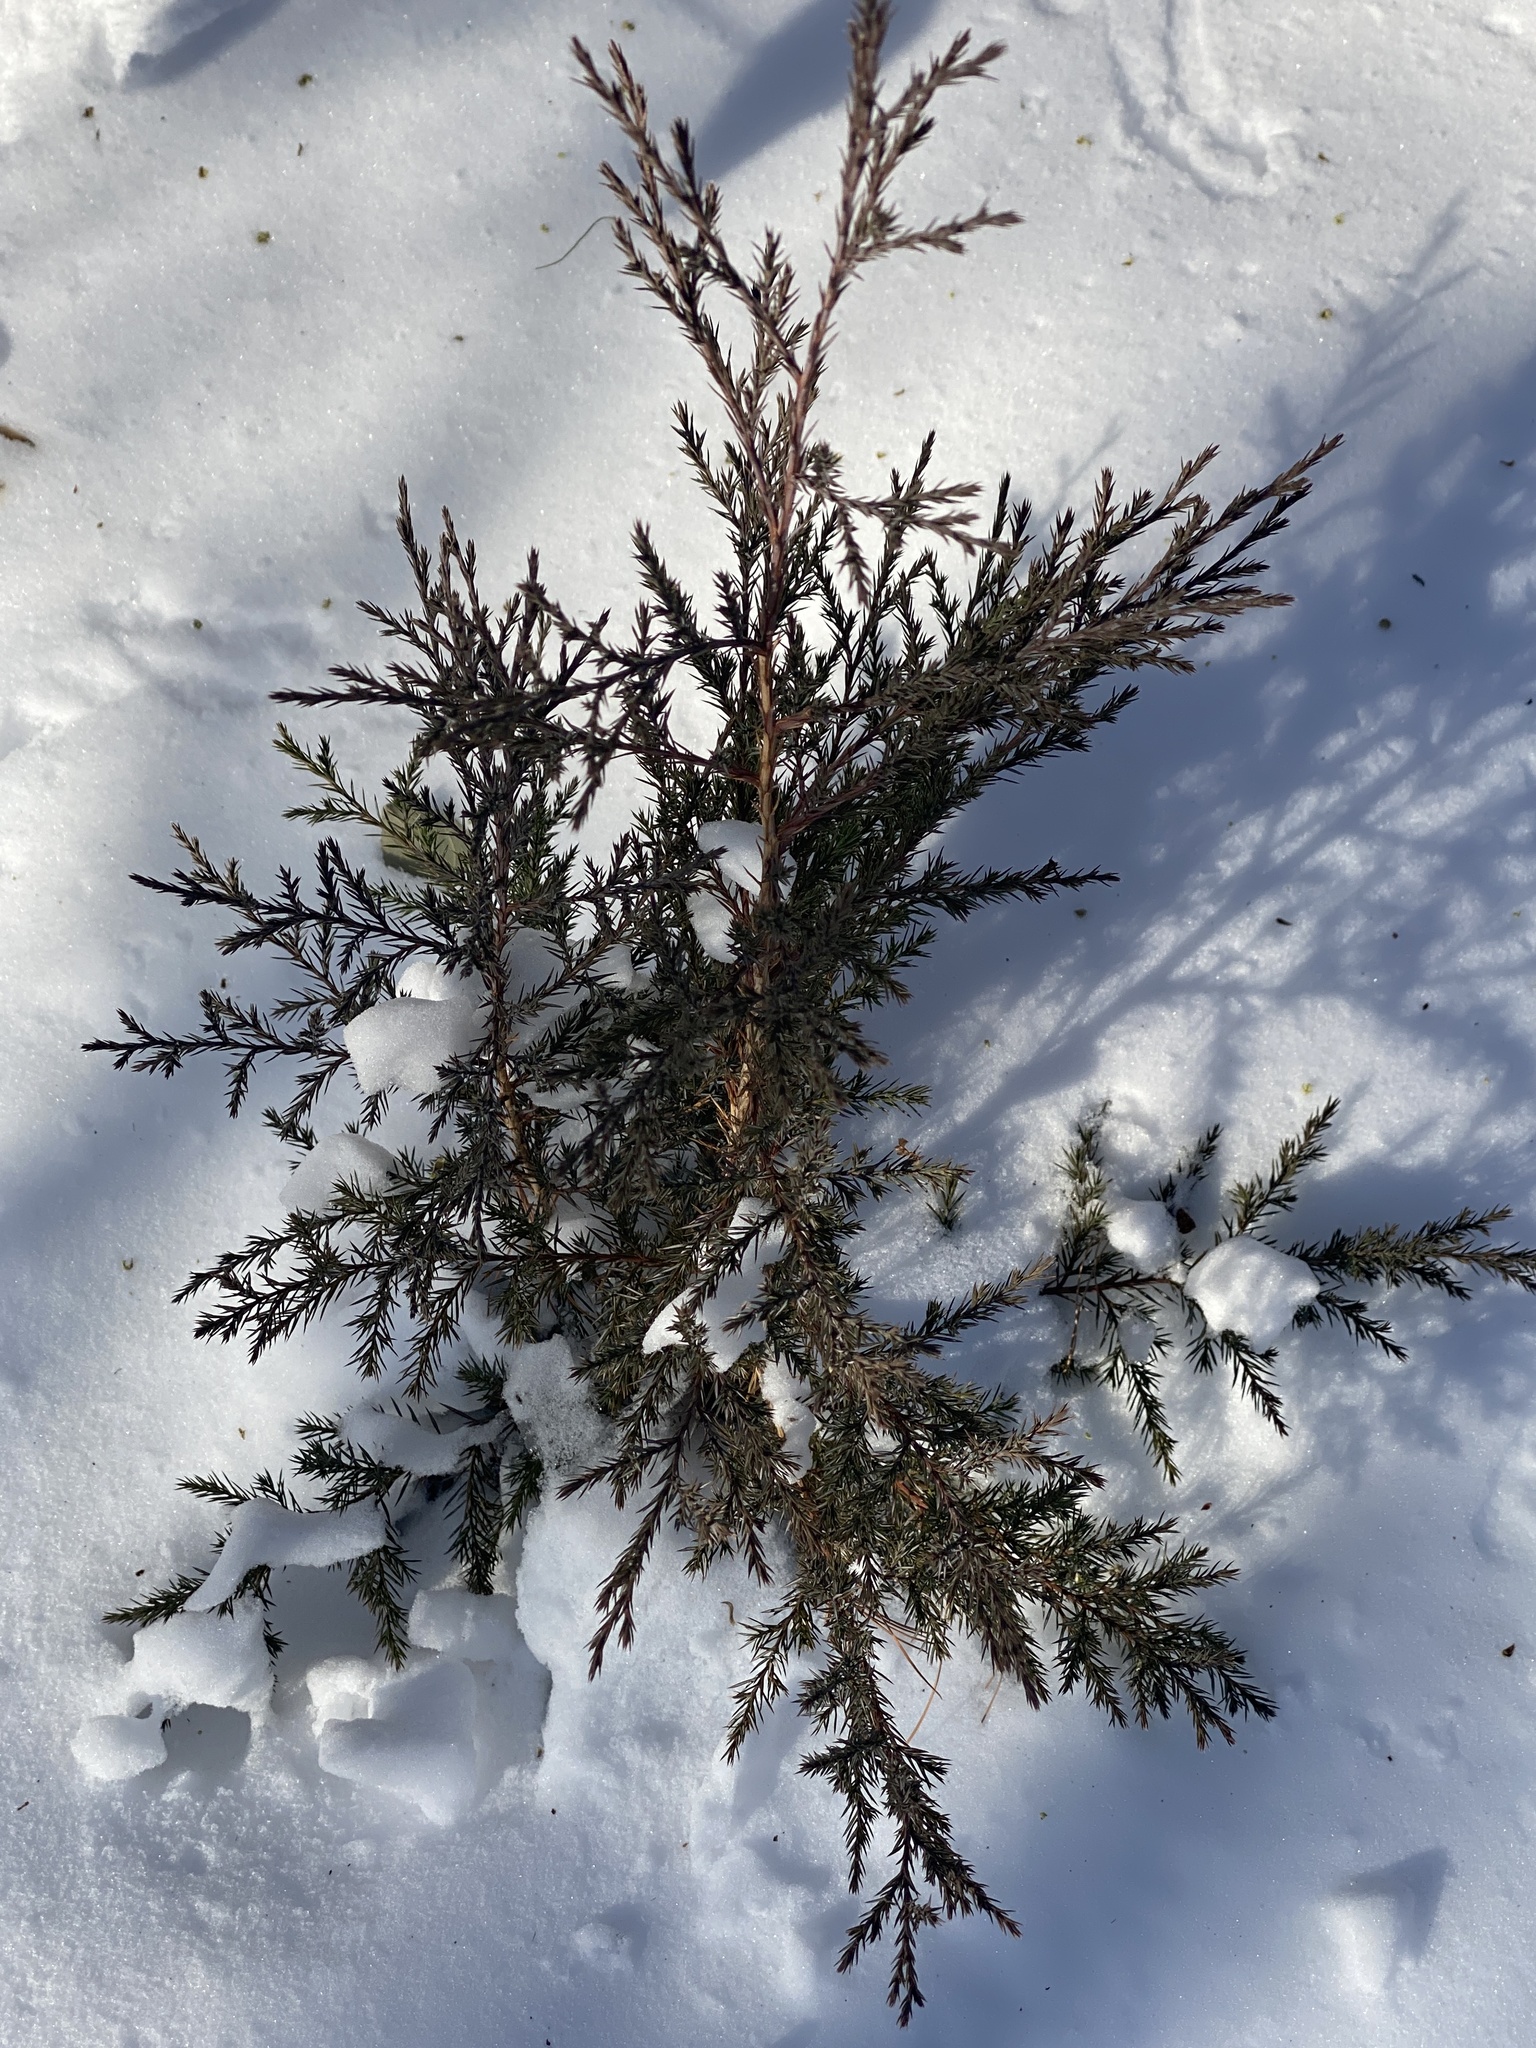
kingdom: Plantae
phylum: Tracheophyta
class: Pinopsida
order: Pinales
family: Cupressaceae
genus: Juniperus
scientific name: Juniperus virginiana
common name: Red juniper
